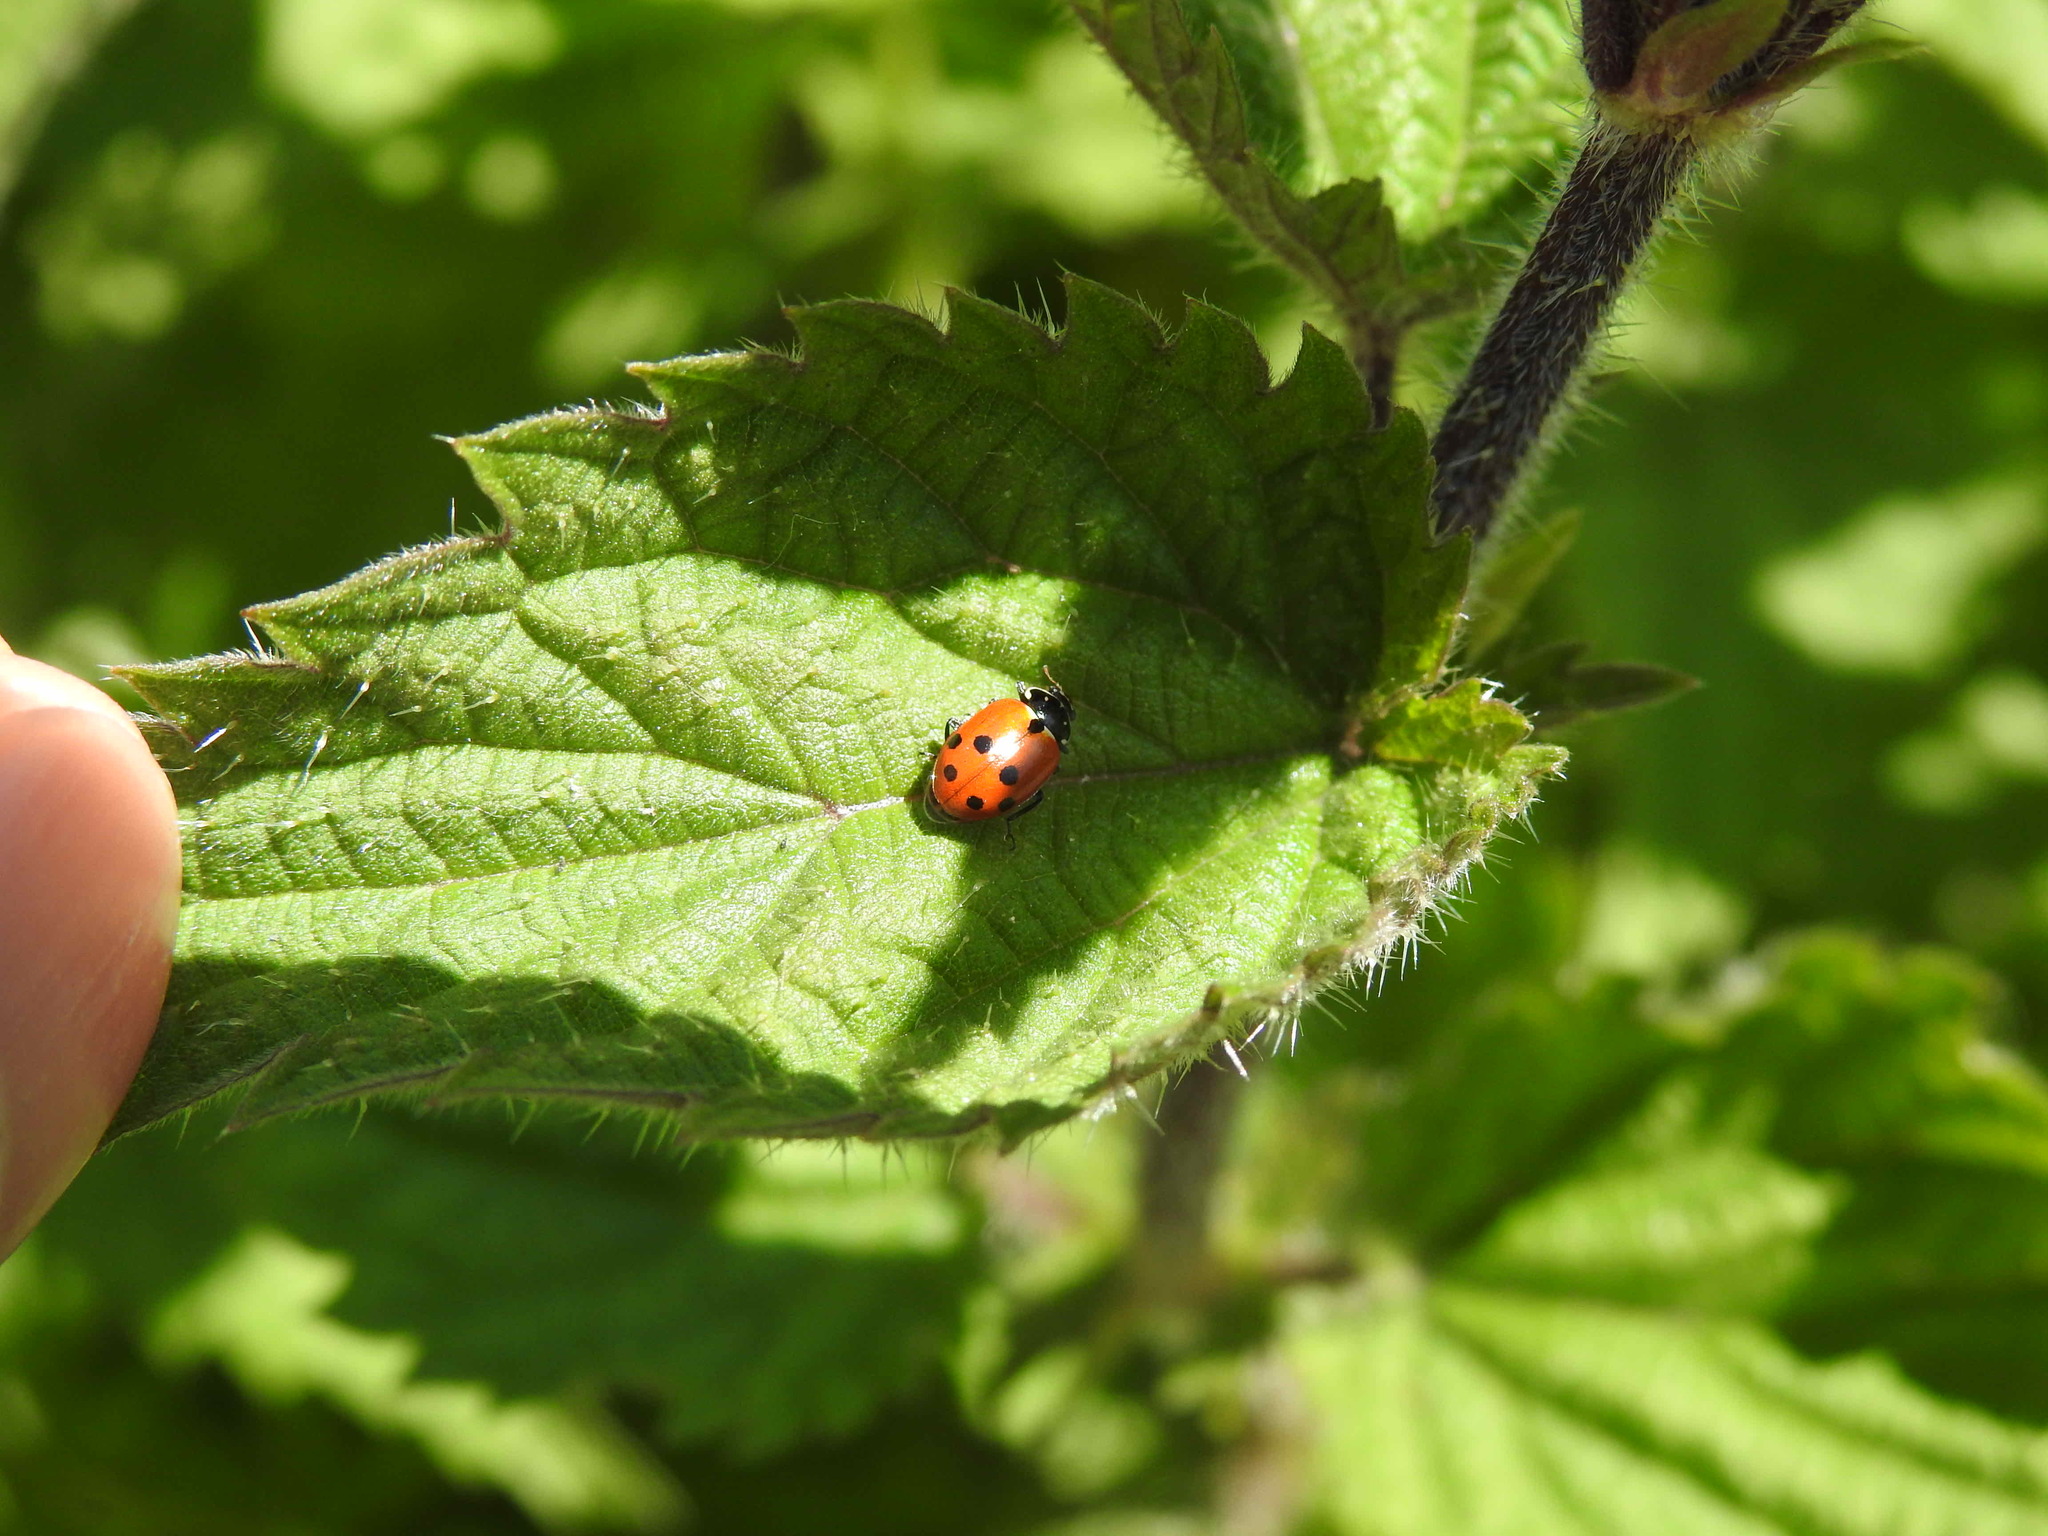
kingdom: Animalia
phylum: Arthropoda
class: Insecta
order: Coleoptera
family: Coccinellidae
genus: Hippodamia
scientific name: Hippodamia variegata
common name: Ladybird beetle
